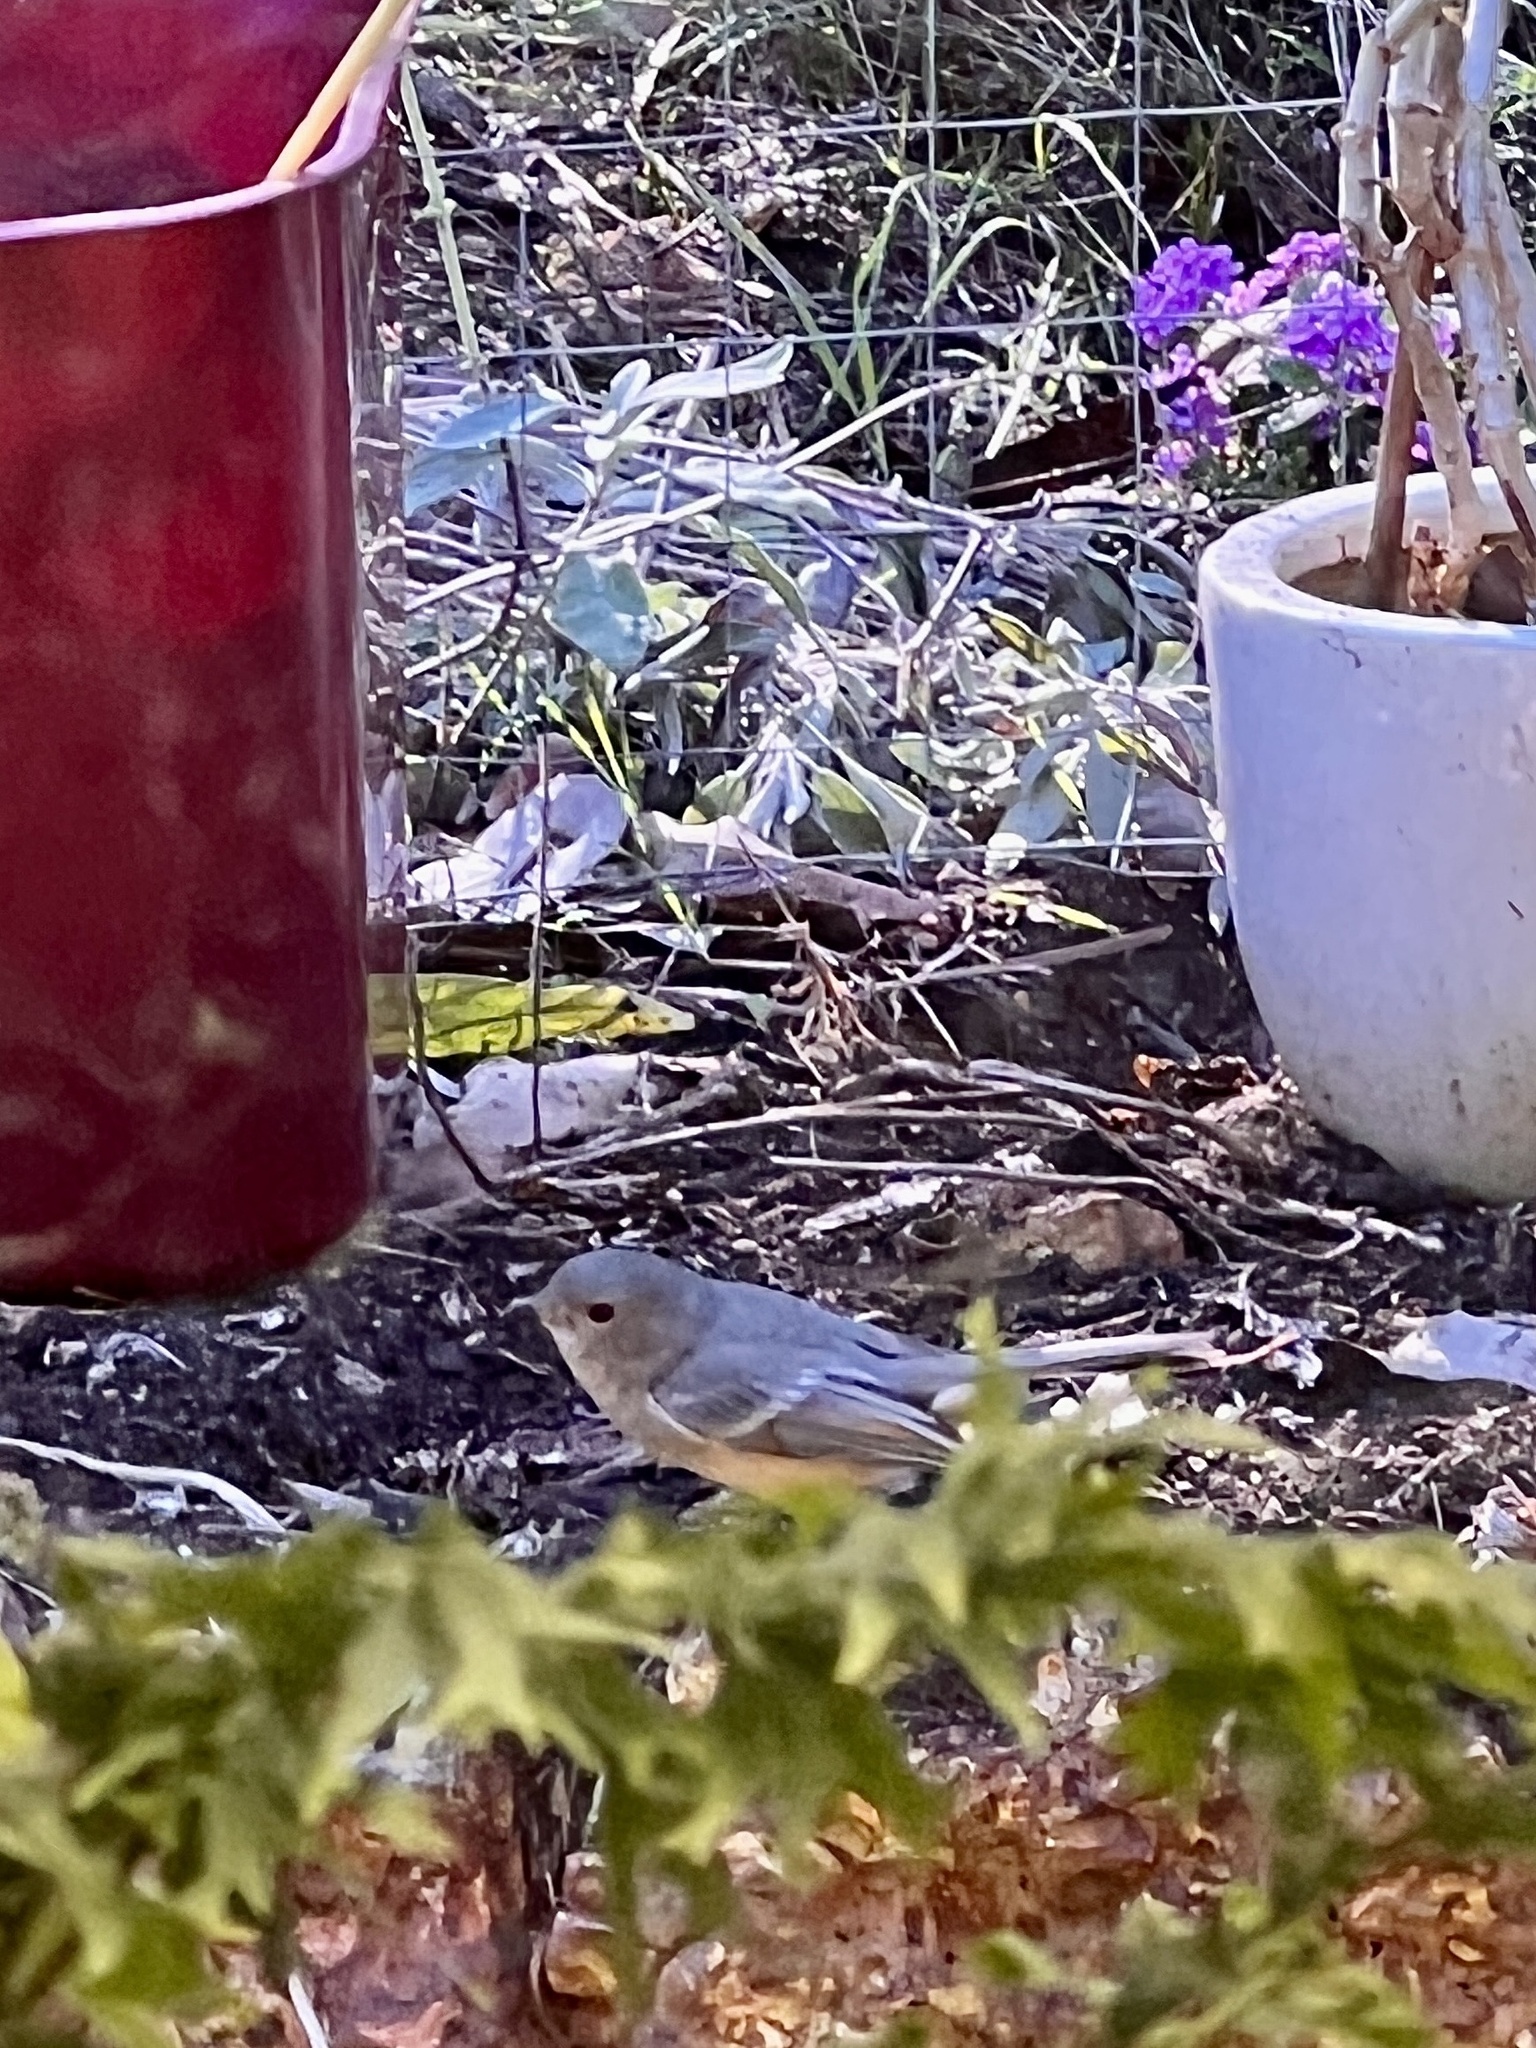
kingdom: Animalia
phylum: Chordata
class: Aves
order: Passeriformes
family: Pachycephalidae
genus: Pachycephala
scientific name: Pachycephala fuliginosa
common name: Western whistler
